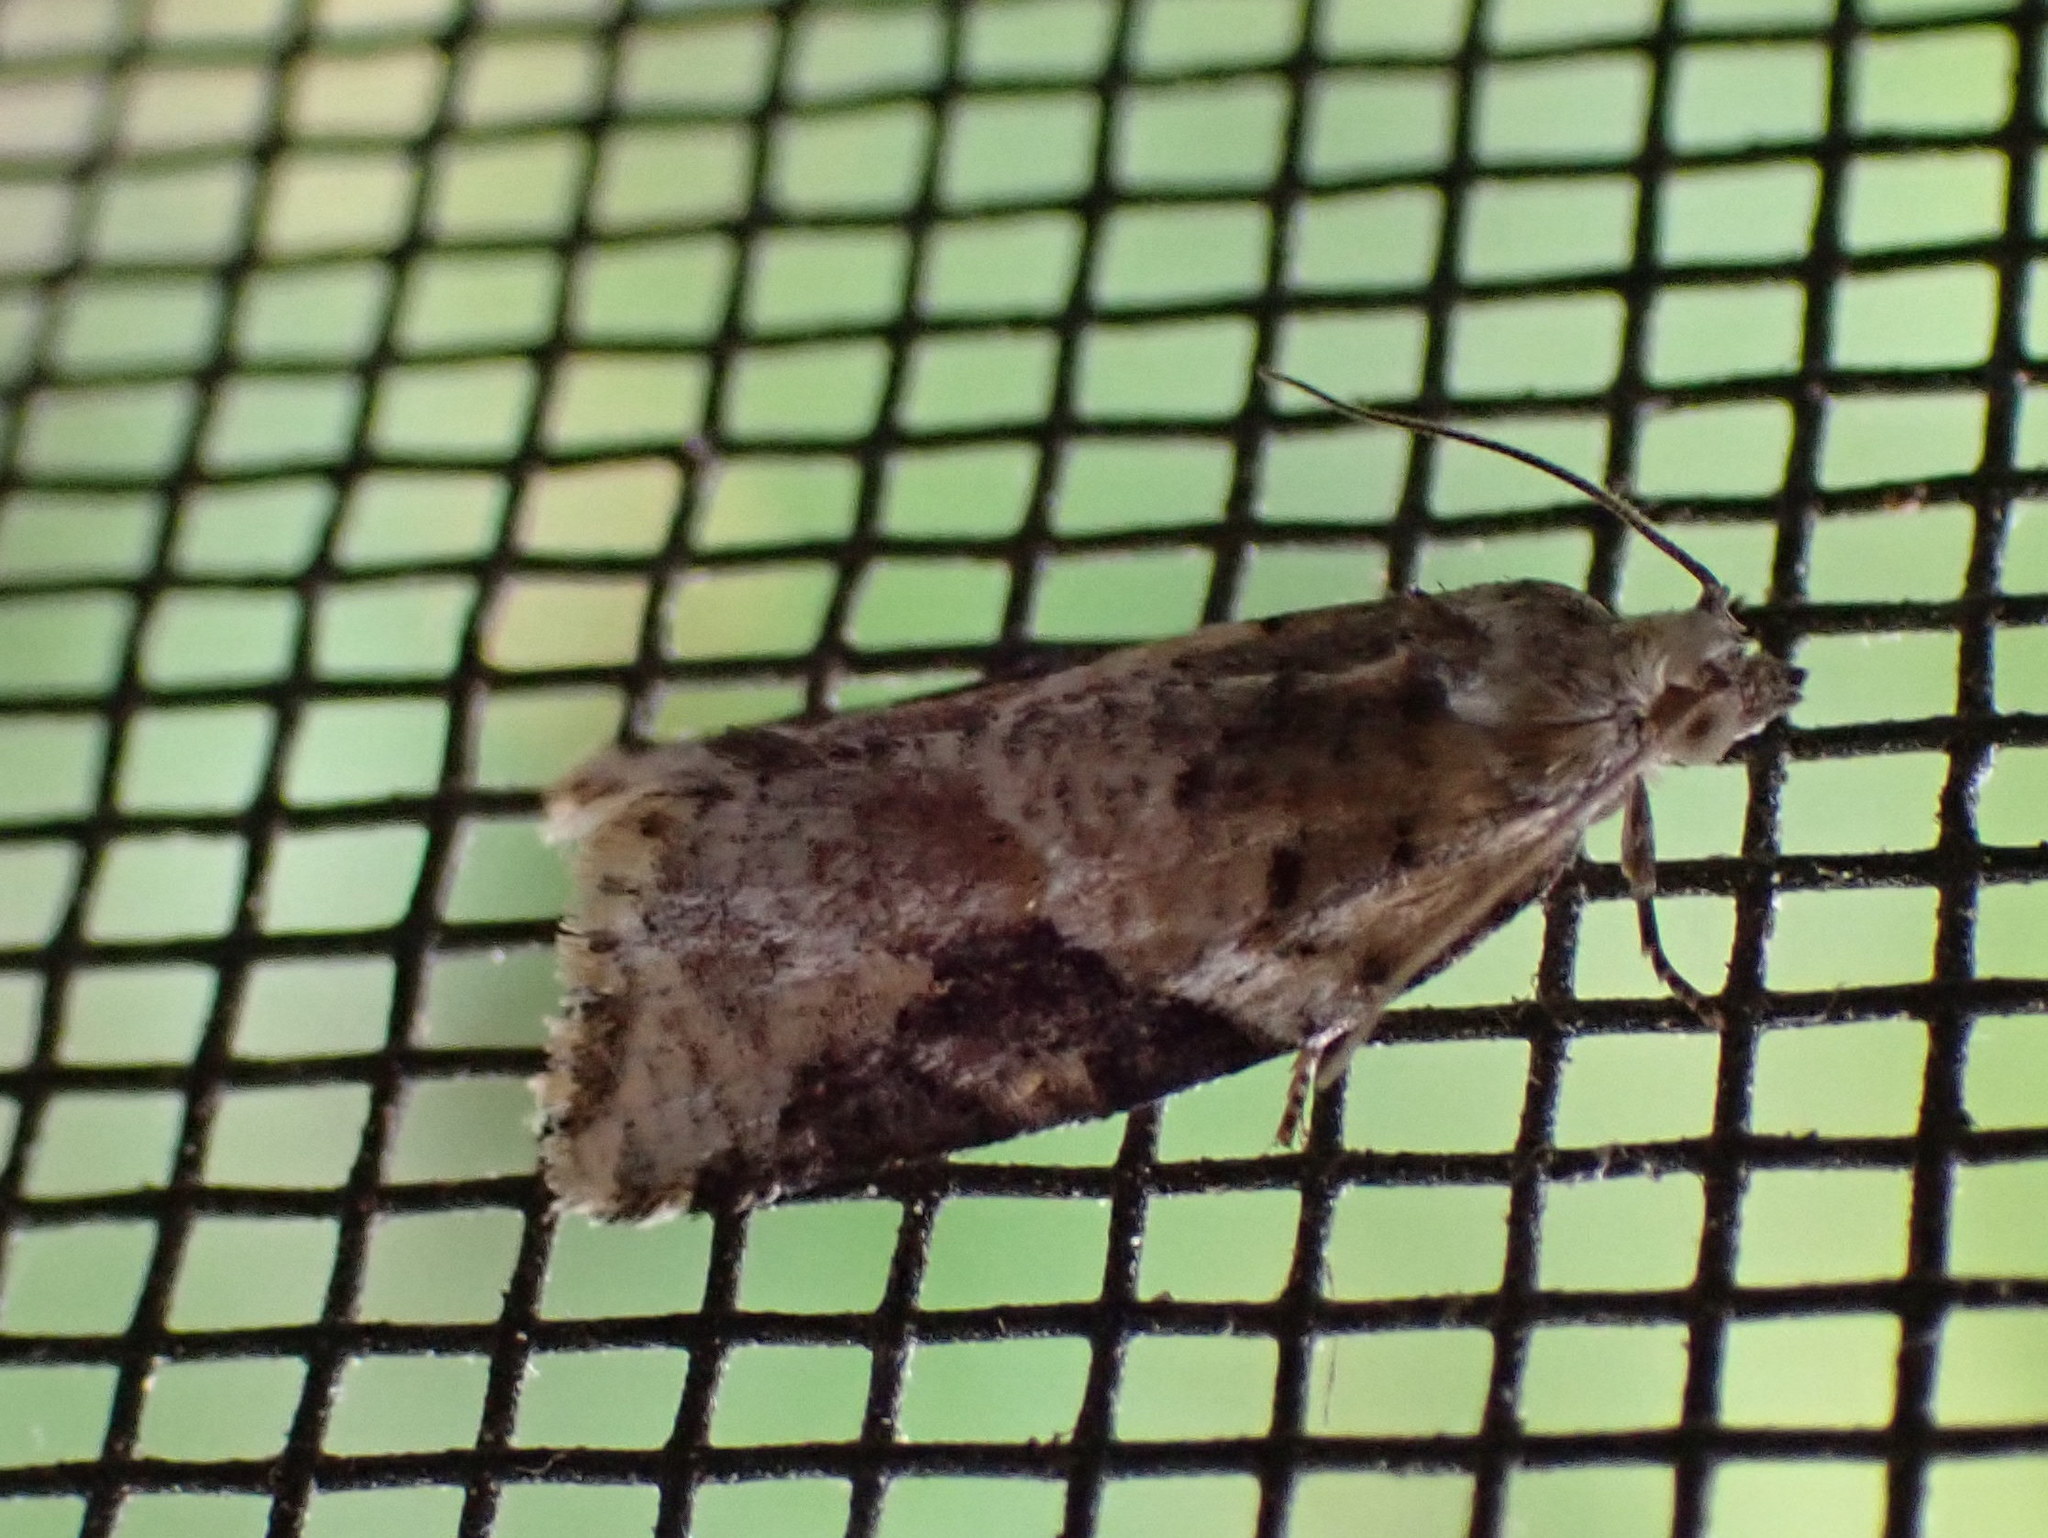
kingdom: Animalia
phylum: Arthropoda
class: Insecta
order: Lepidoptera
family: Tortricidae
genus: Argyrotaenia
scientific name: Argyrotaenia mariana
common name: Gray-banded leafroller moth
